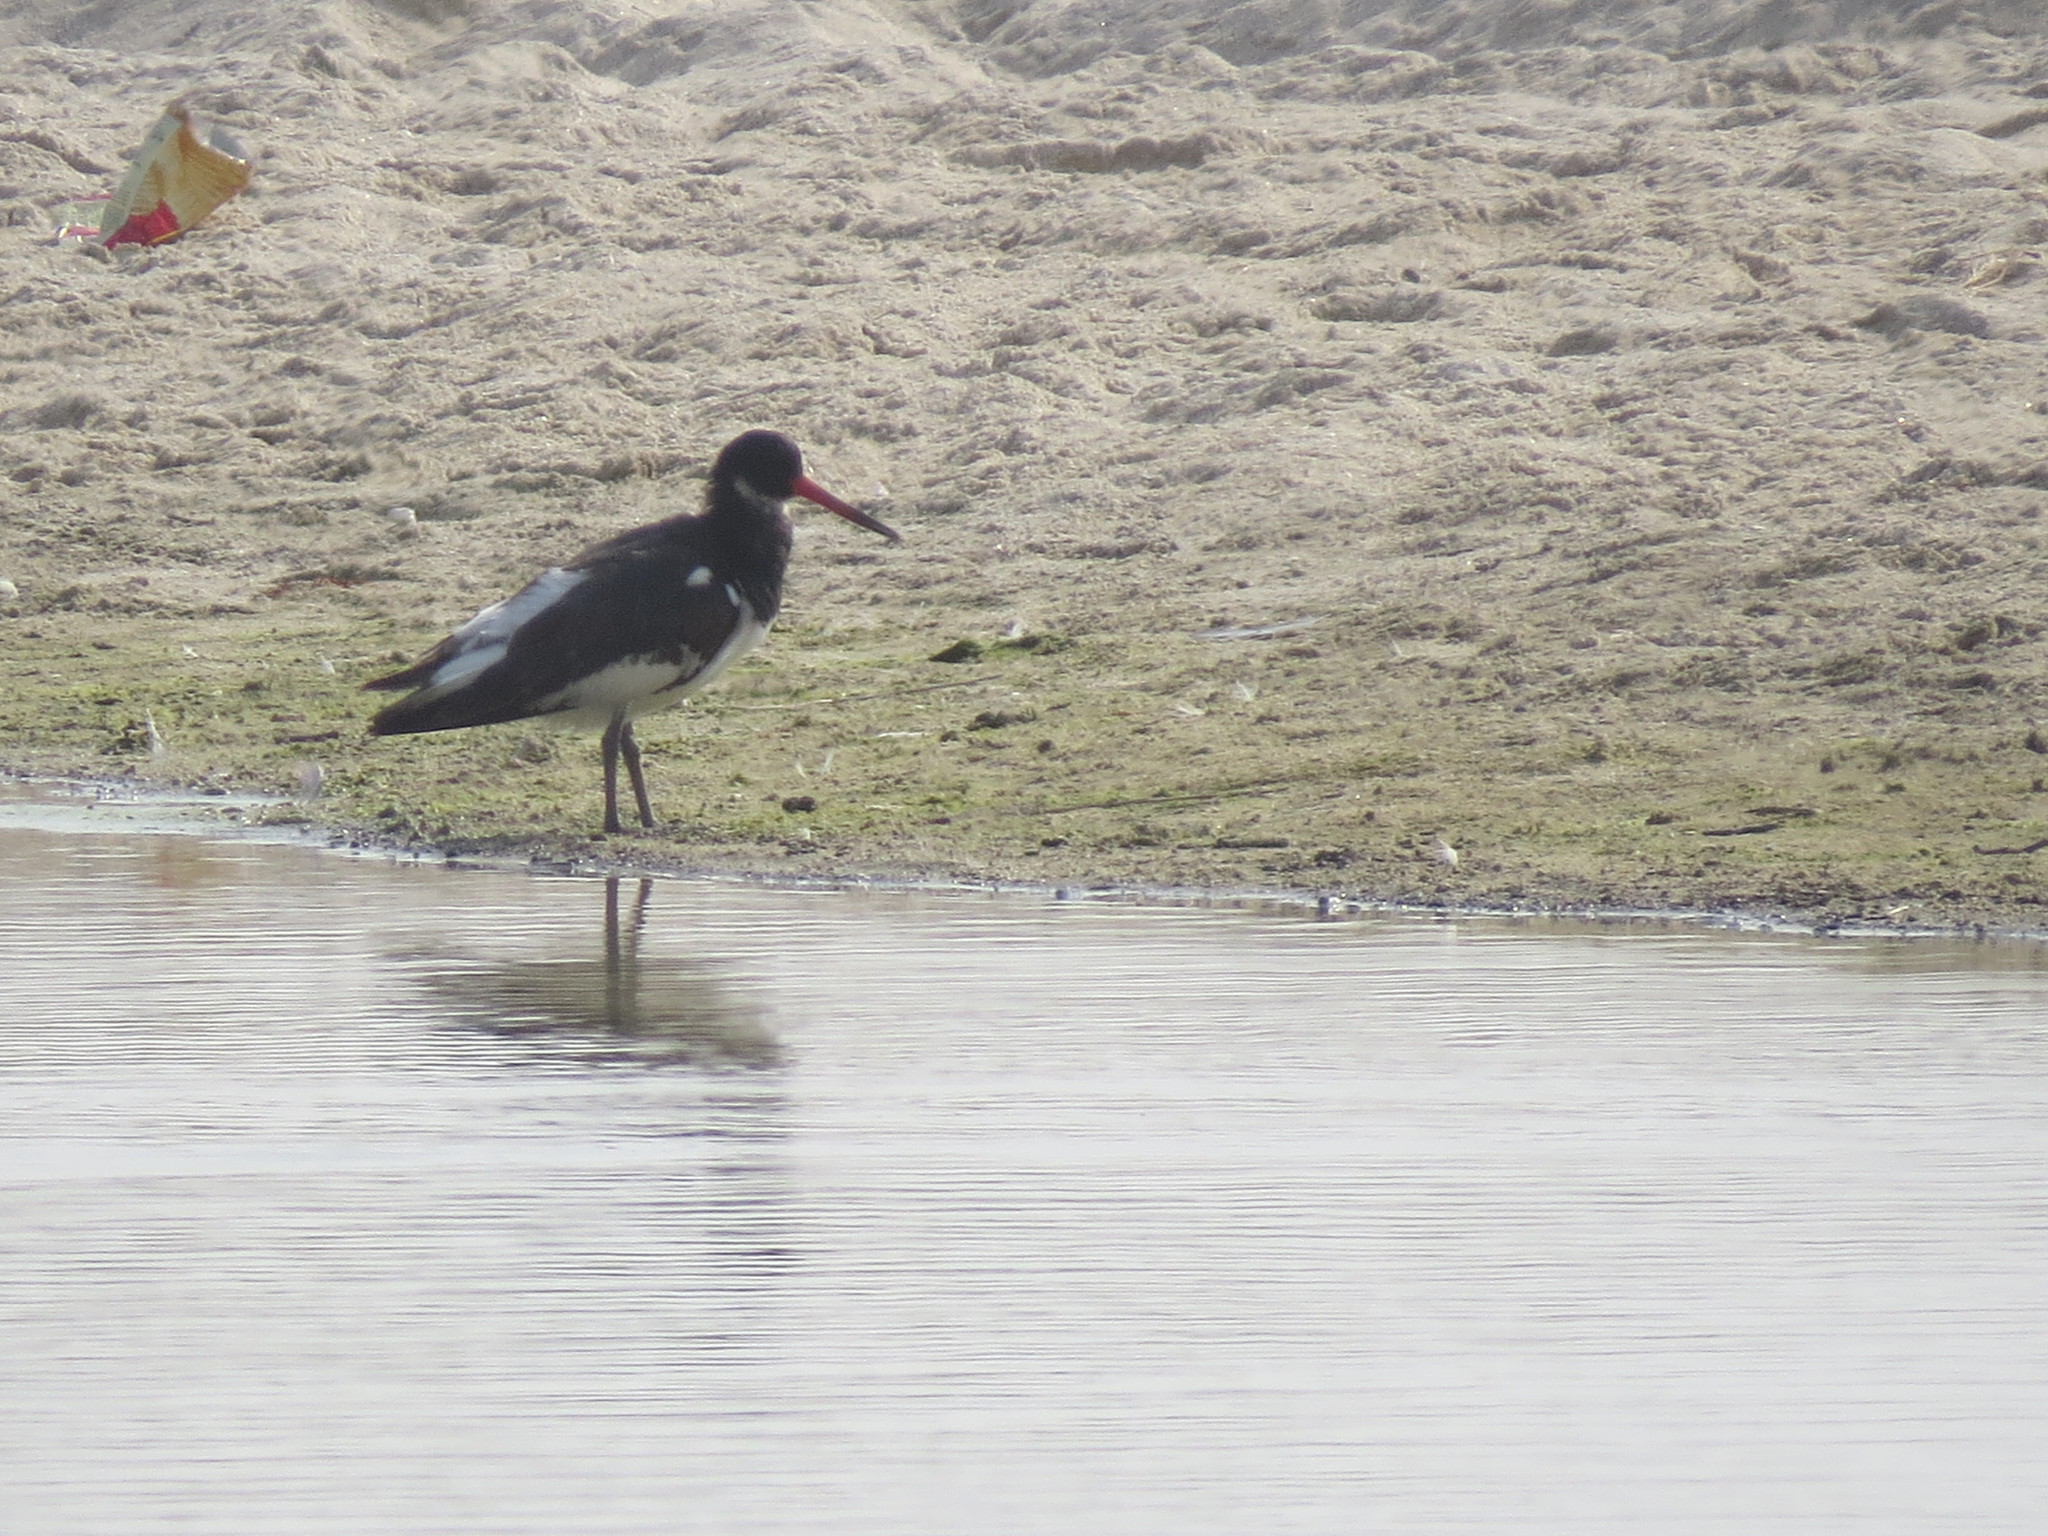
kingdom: Animalia
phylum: Chordata
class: Aves
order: Charadriiformes
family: Haematopodidae
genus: Haematopus
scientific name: Haematopus ostralegus
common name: Eurasian oystercatcher
